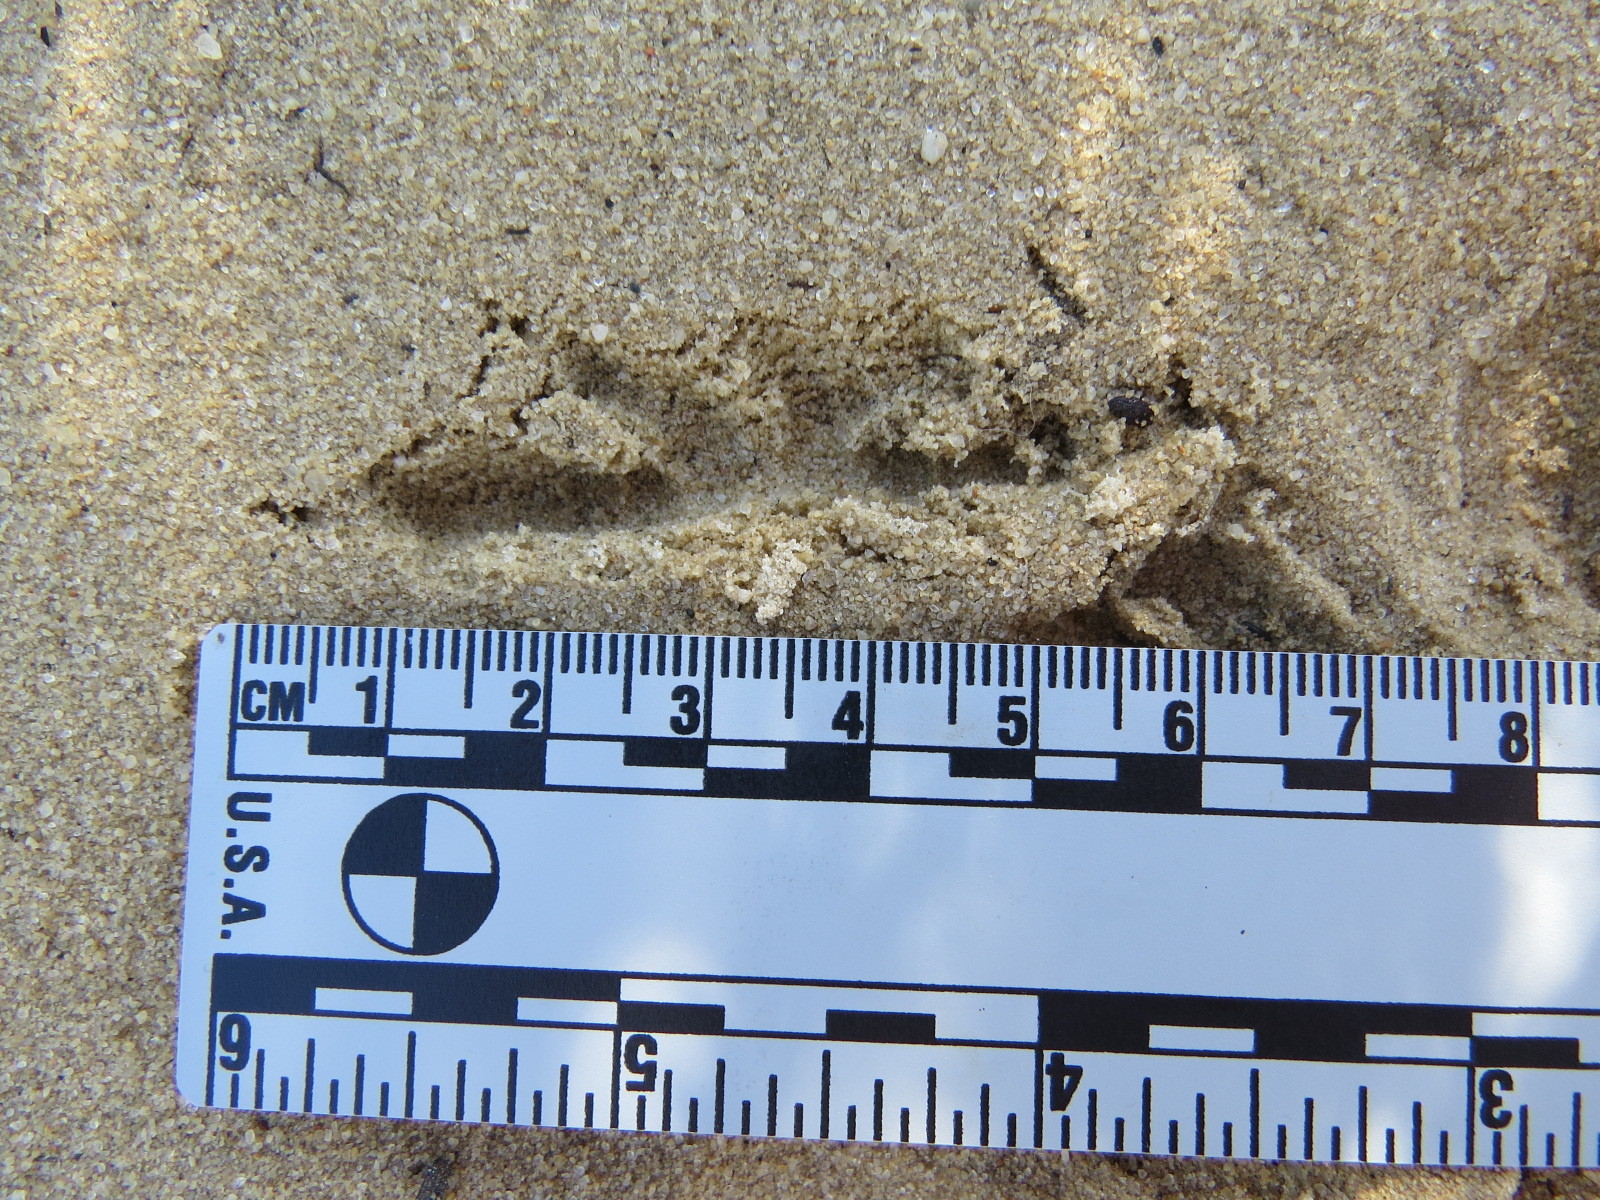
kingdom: Animalia
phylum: Chordata
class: Aves
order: Piciformes
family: Picidae
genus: Colaptes
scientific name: Colaptes auratus
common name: Northern flicker
